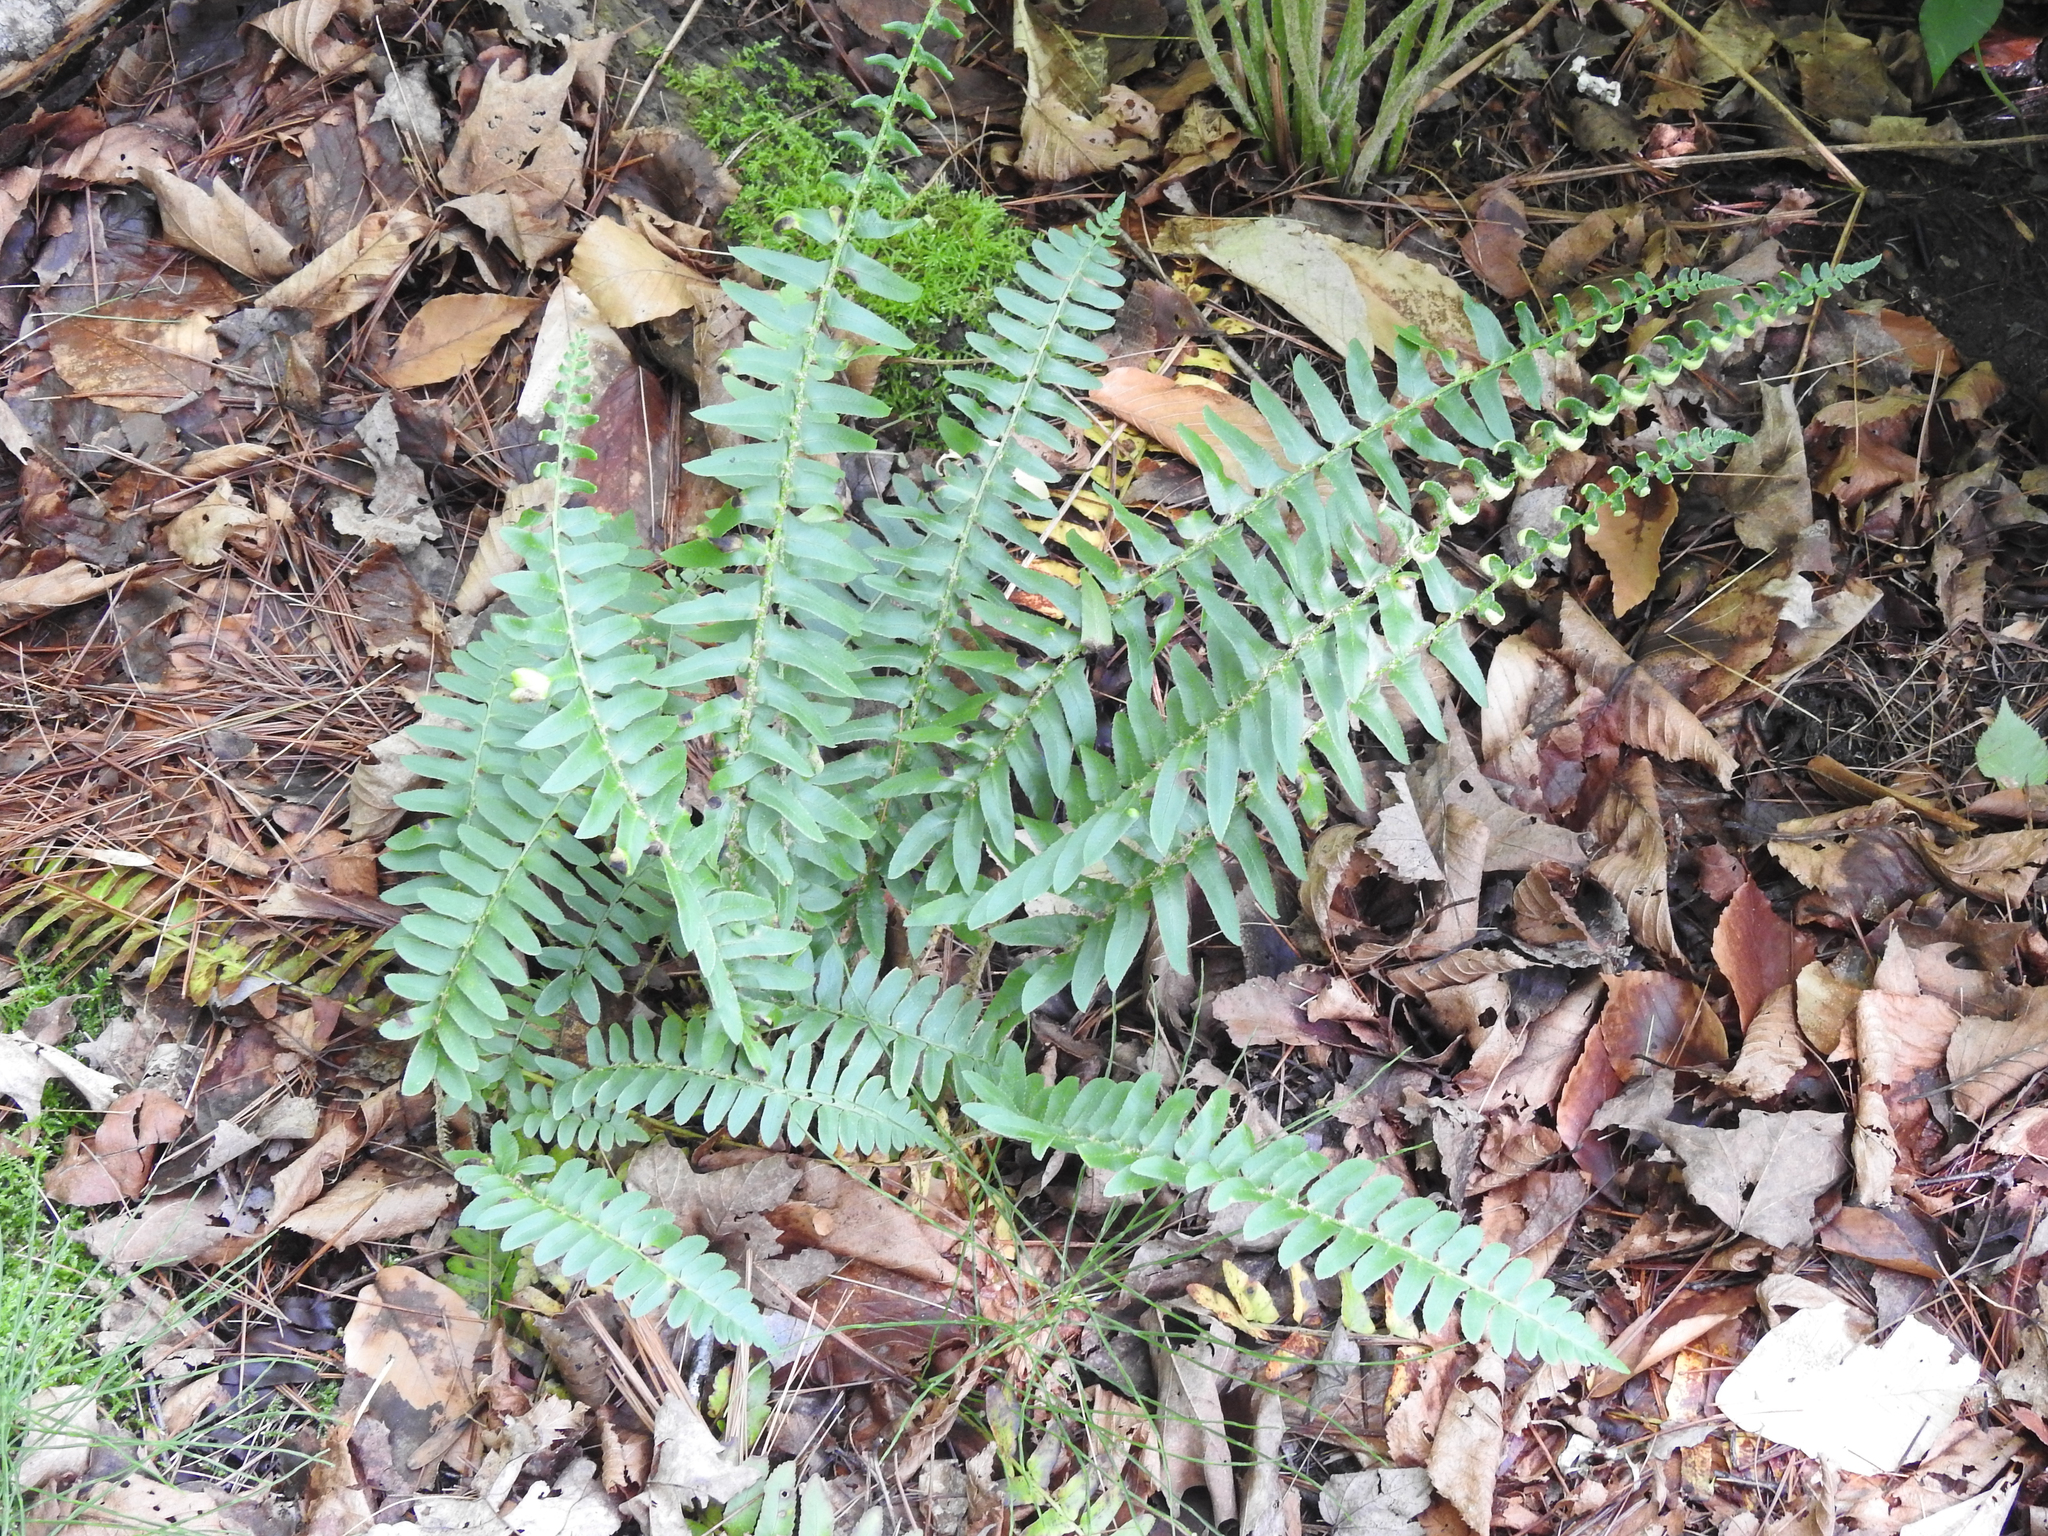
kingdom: Plantae
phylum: Tracheophyta
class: Polypodiopsida
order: Polypodiales
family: Dryopteridaceae
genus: Polystichum
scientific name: Polystichum acrostichoides
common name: Christmas fern
